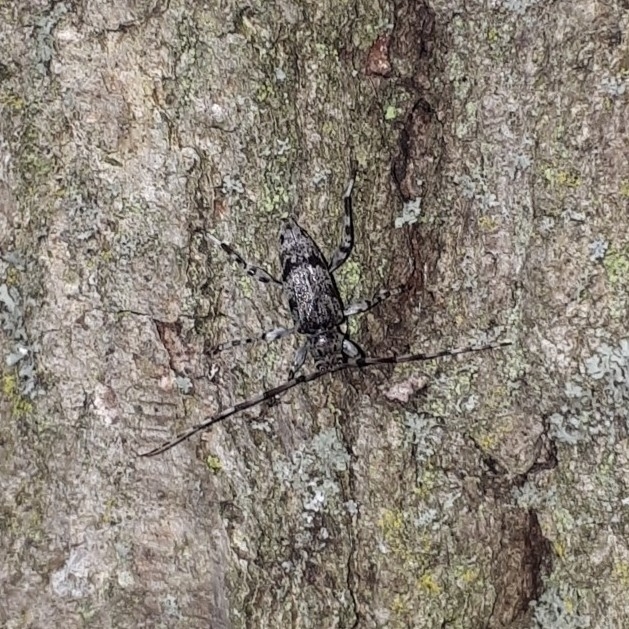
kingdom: Animalia
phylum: Arthropoda
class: Insecta
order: Coleoptera
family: Cerambycidae
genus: Graphisurus
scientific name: Graphisurus fasciatus
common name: Banded graphisurus
